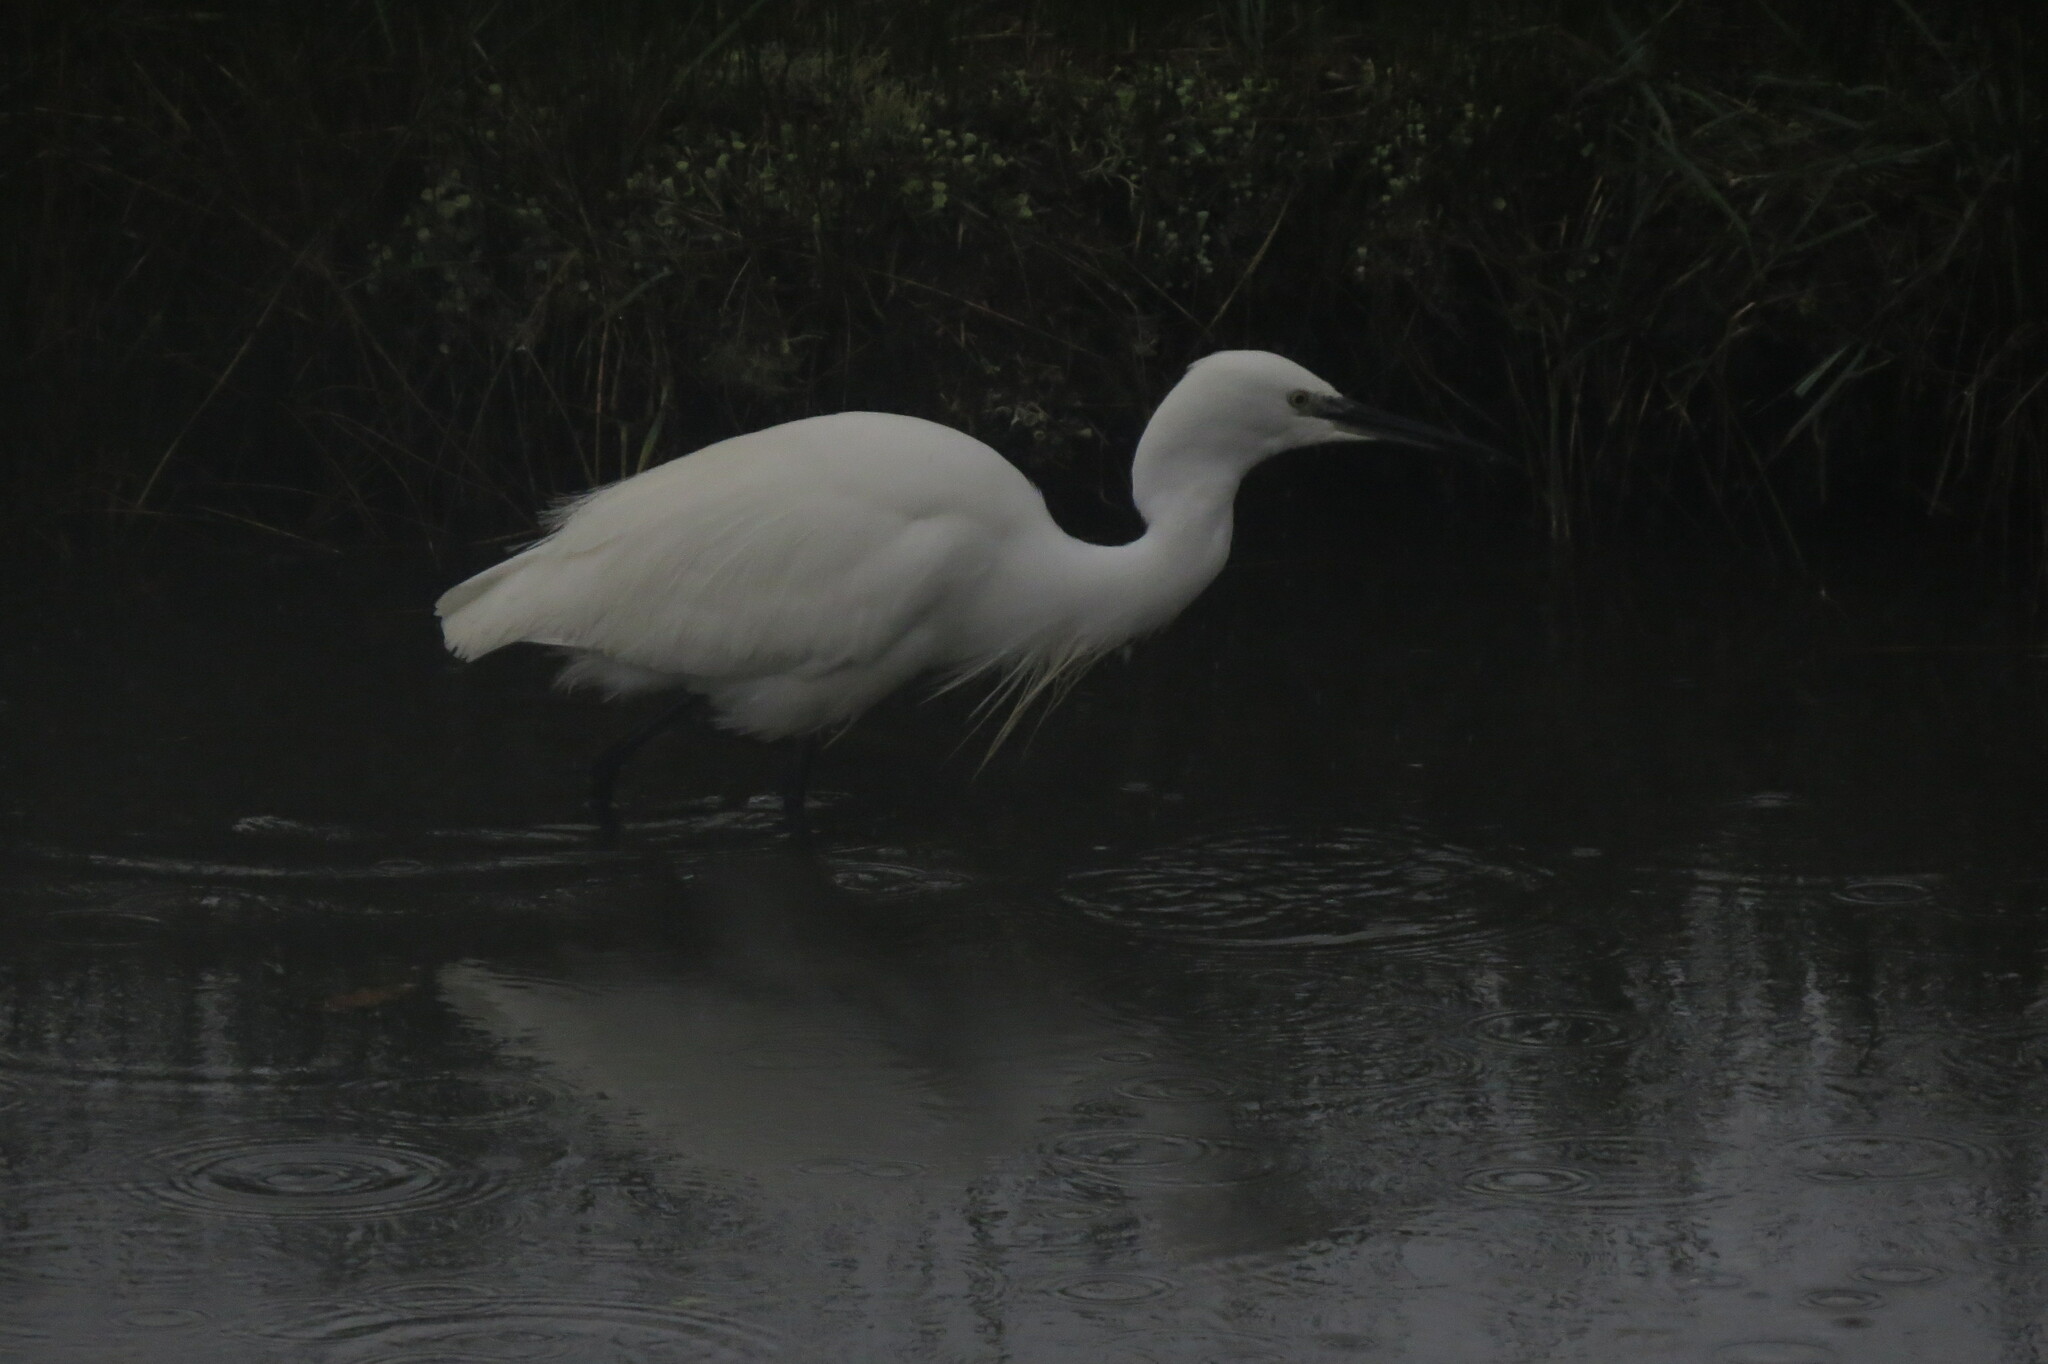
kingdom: Animalia
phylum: Chordata
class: Aves
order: Pelecaniformes
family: Ardeidae
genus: Egretta
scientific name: Egretta garzetta
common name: Little egret
